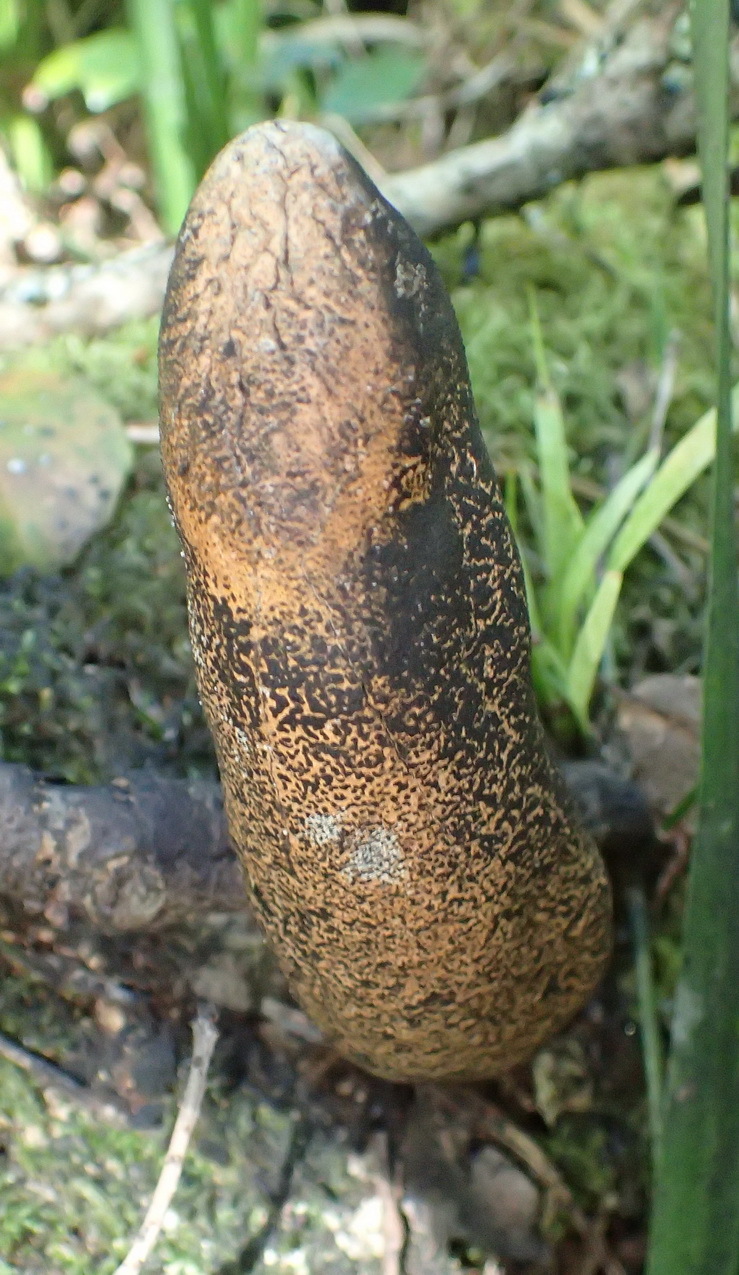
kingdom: Fungi
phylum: Ascomycota
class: Sordariomycetes
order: Xylariales
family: Xylariaceae
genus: Xylaria
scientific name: Xylaria telfairii
